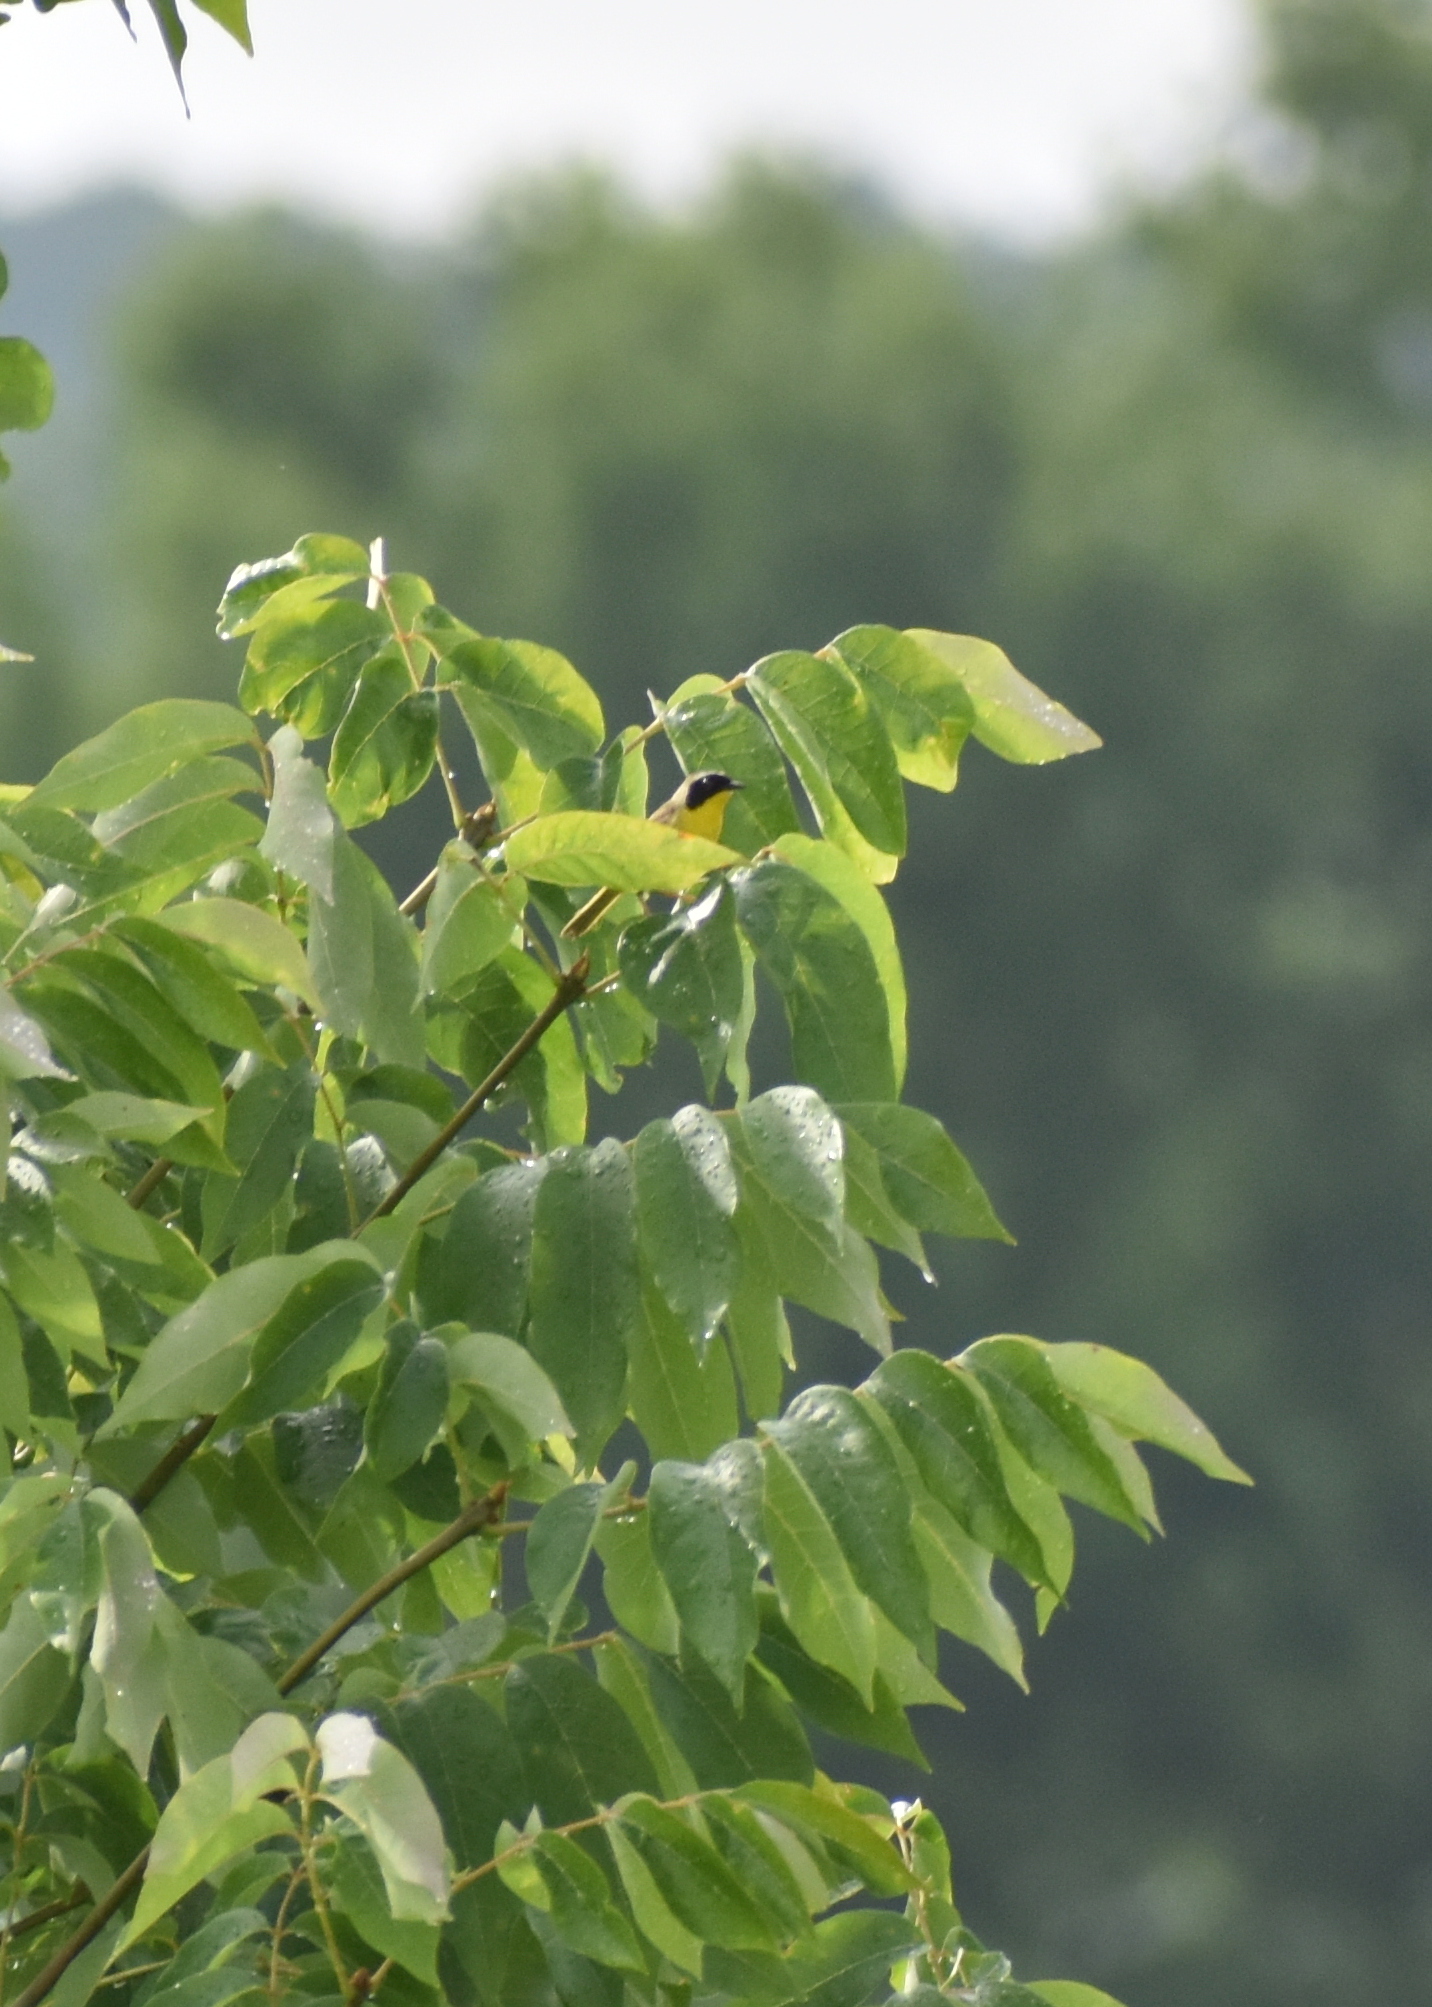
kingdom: Animalia
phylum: Chordata
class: Aves
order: Passeriformes
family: Parulidae
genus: Geothlypis
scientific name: Geothlypis trichas
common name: Common yellowthroat
